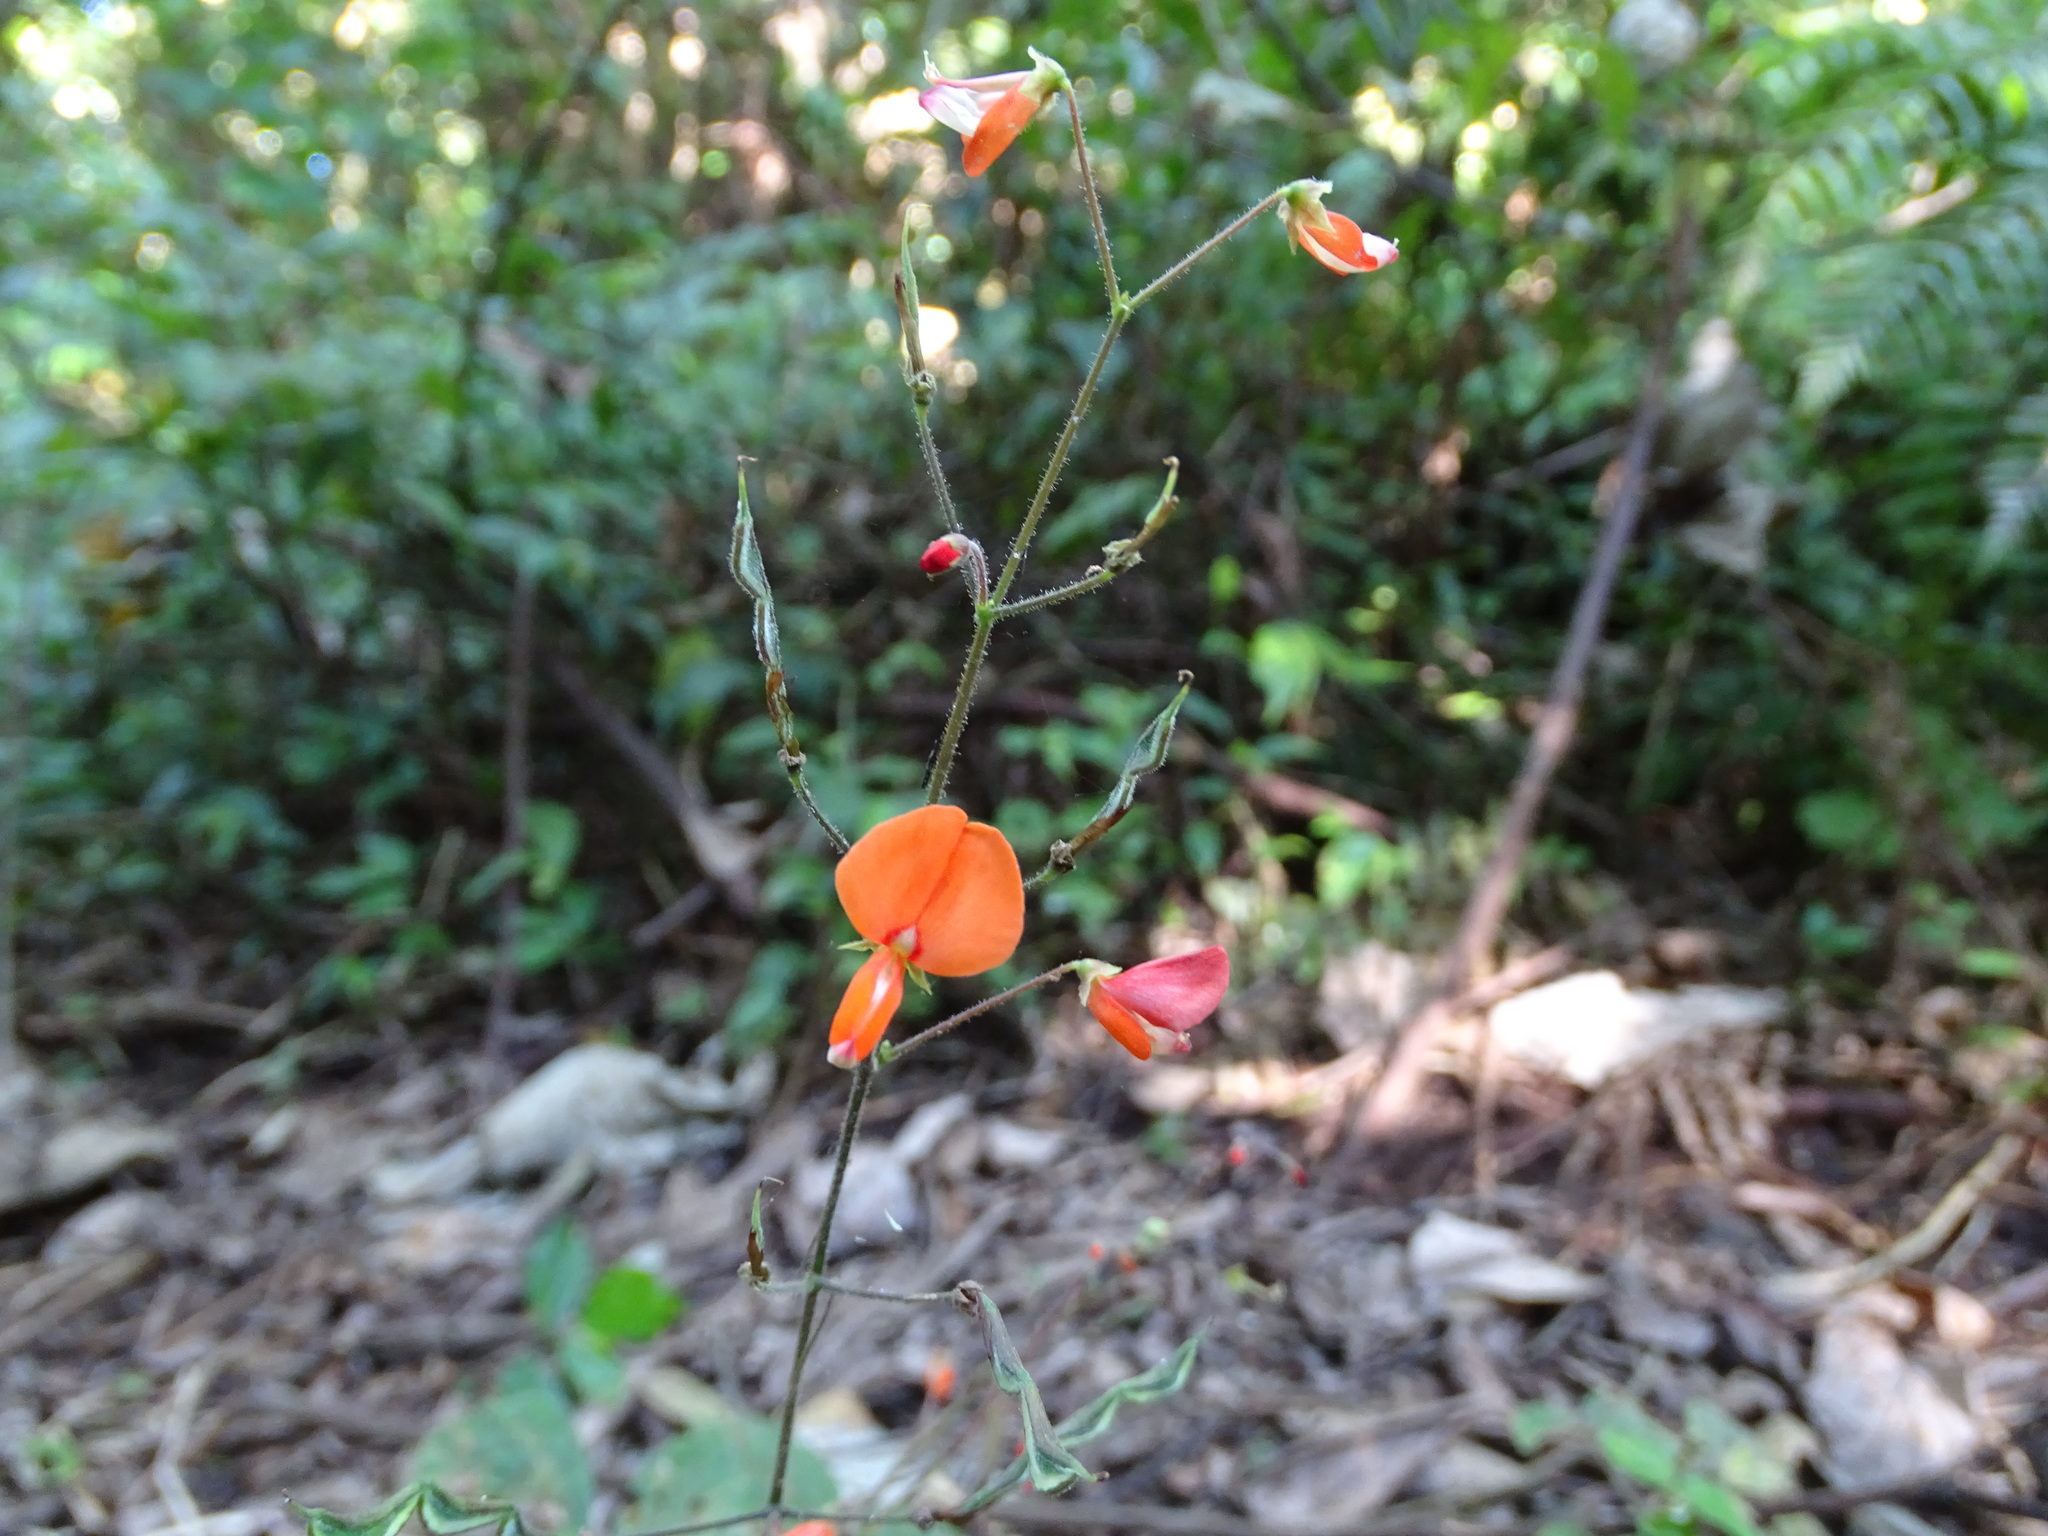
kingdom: Plantae
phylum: Tracheophyta
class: Magnoliopsida
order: Fabales
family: Fabaceae
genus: Hylodesmum
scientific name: Hylodesmum repandum
